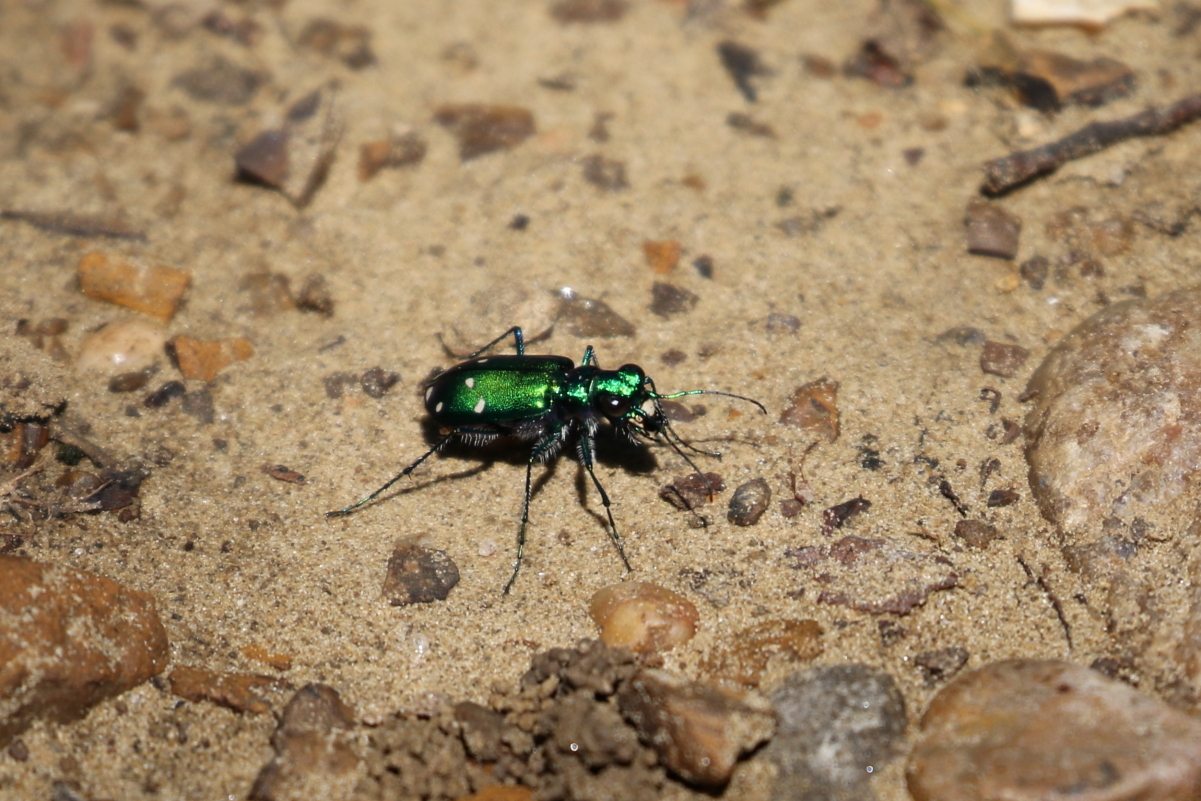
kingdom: Animalia
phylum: Arthropoda
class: Insecta
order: Coleoptera
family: Carabidae
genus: Cicindela
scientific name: Cicindela sexguttata
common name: Six-spotted tiger beetle
